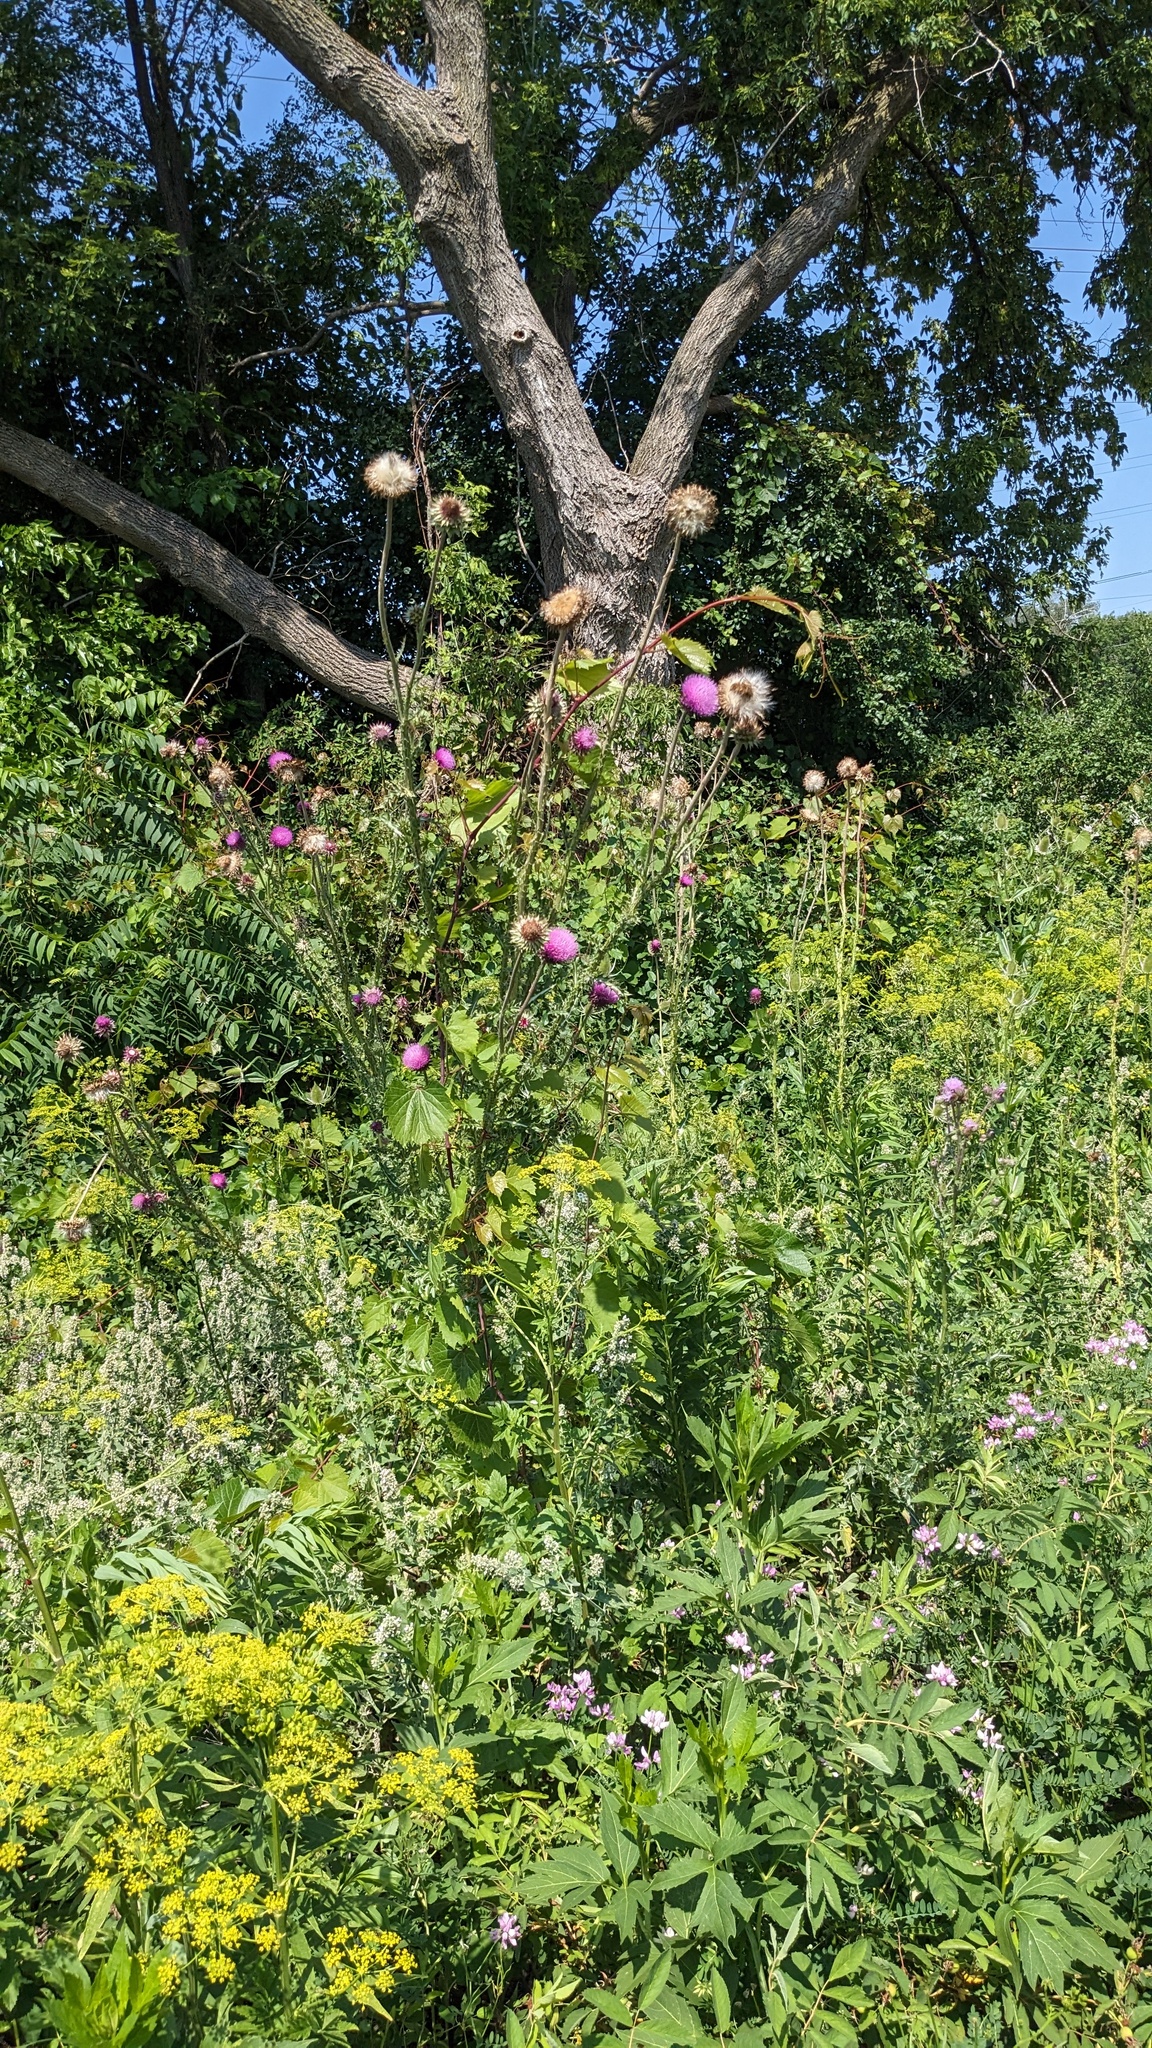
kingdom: Plantae
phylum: Tracheophyta
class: Magnoliopsida
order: Asterales
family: Asteraceae
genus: Carduus
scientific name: Carduus nutans
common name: Musk thistle
